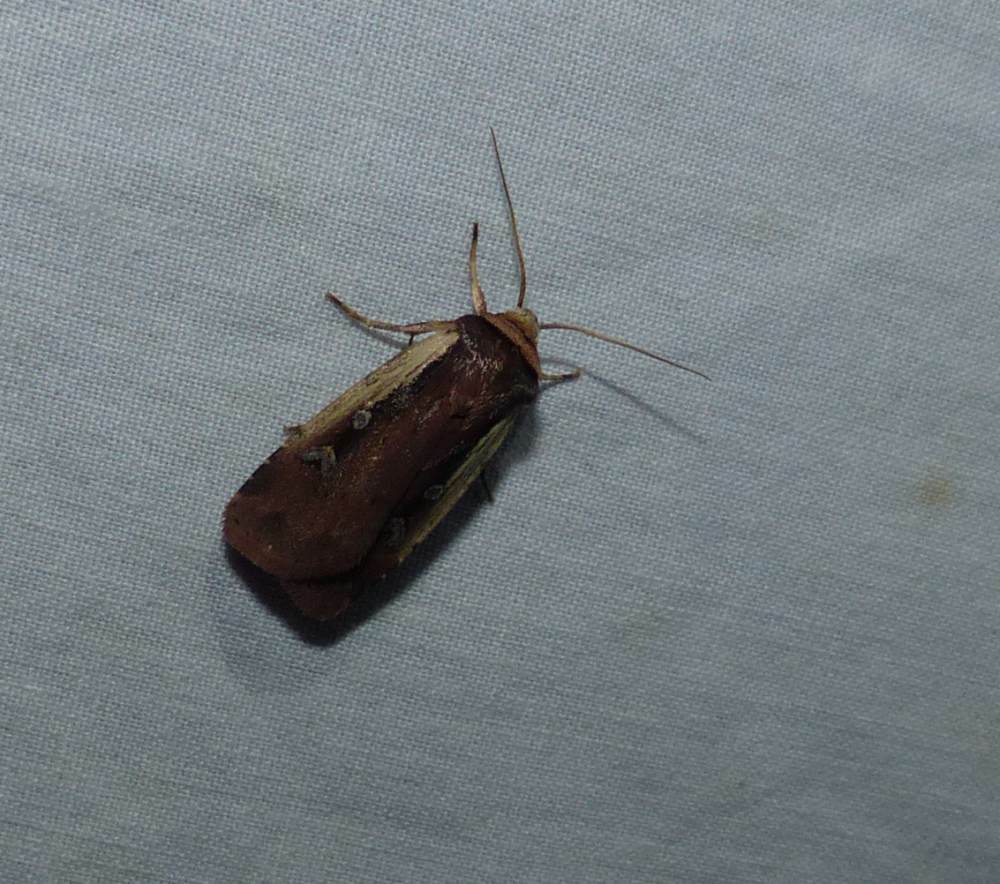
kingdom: Animalia
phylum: Arthropoda
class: Insecta
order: Lepidoptera
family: Noctuidae
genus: Ochropleura
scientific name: Ochropleura implecta
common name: Flame-shouldered dart
